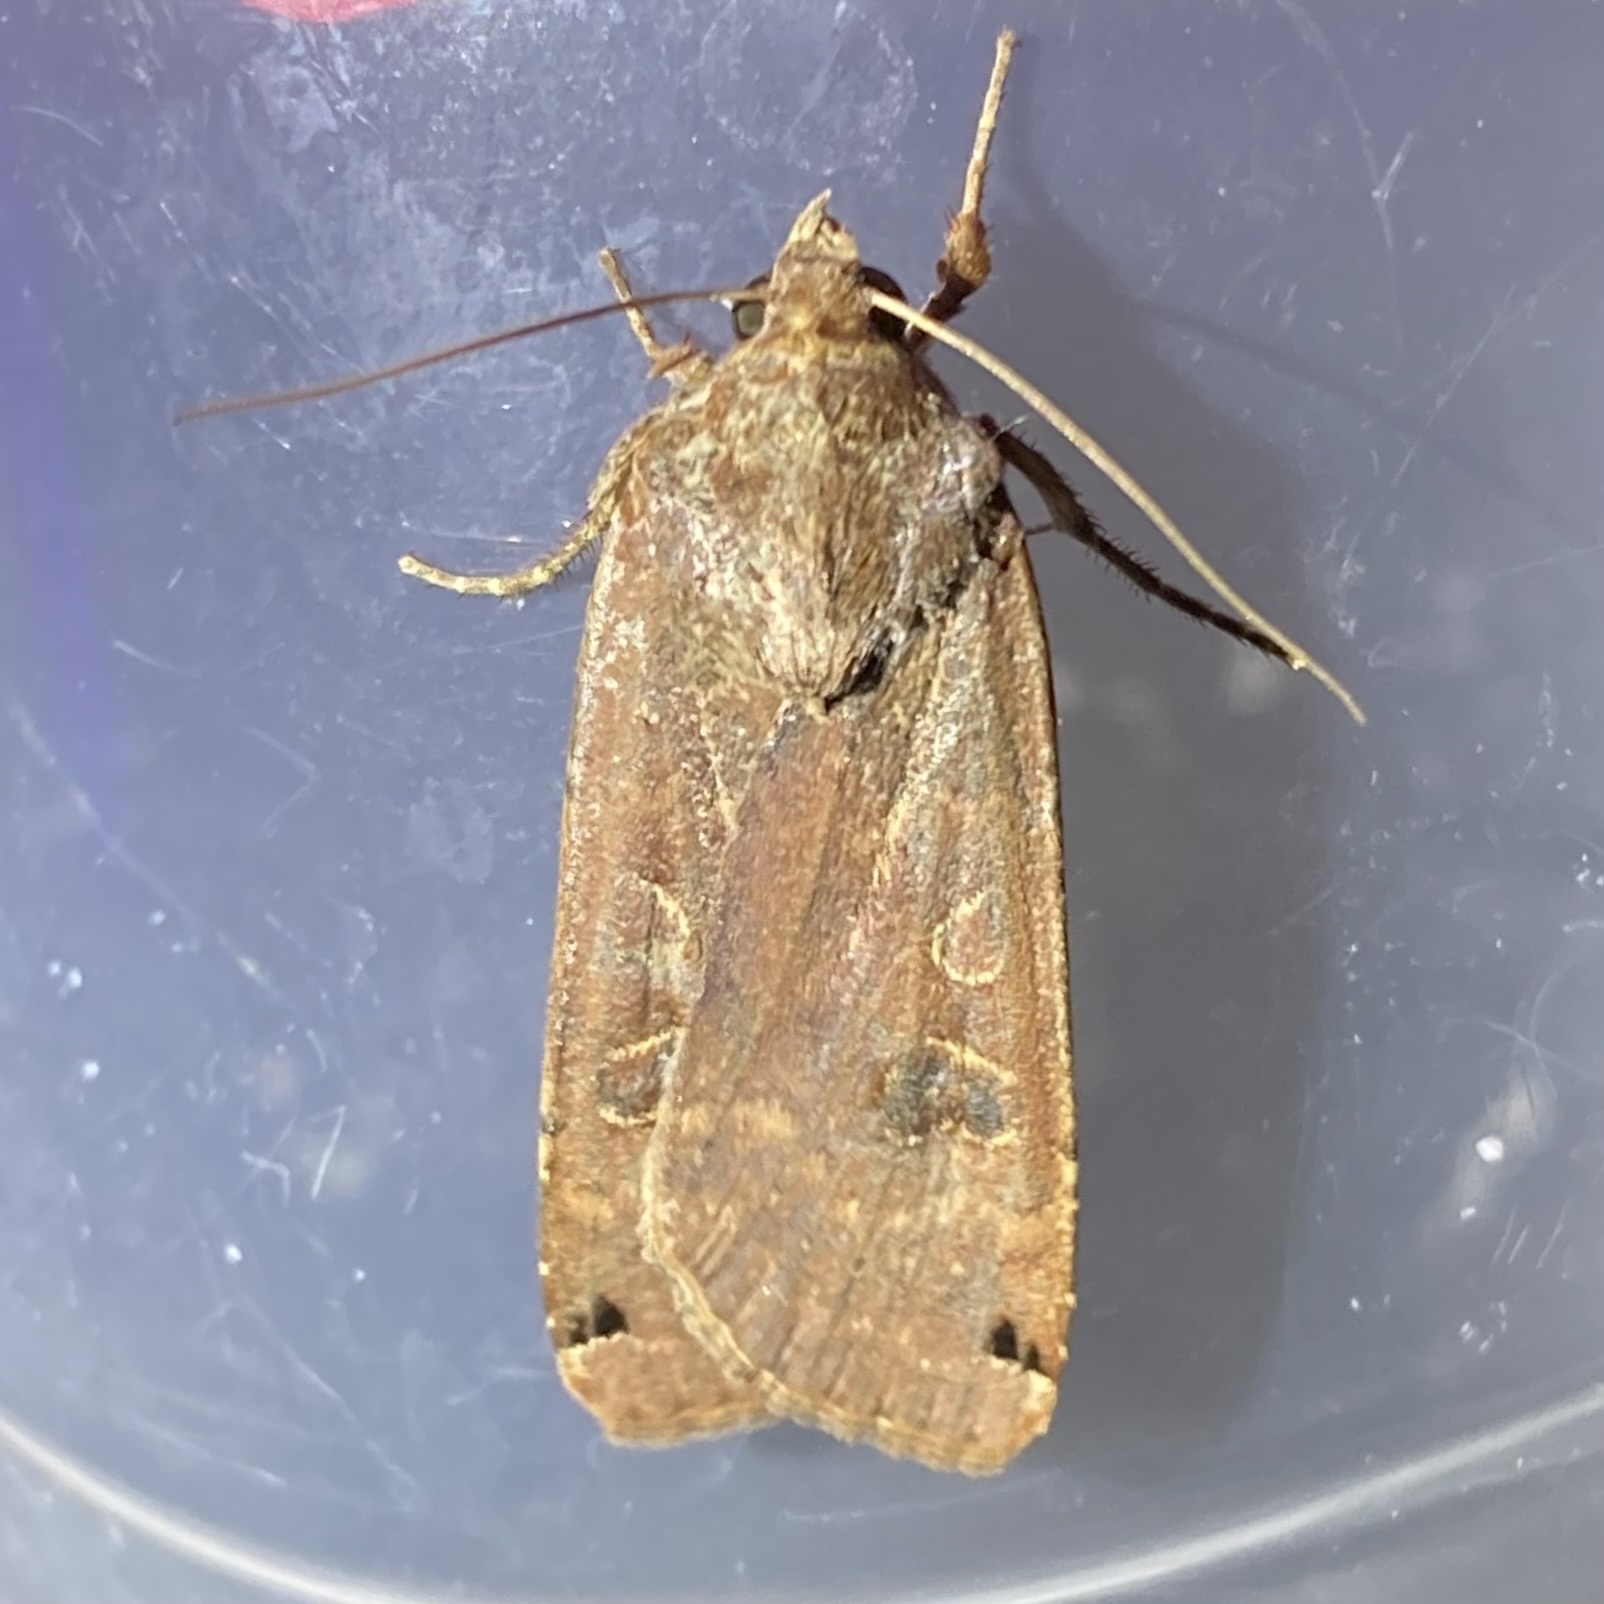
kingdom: Animalia
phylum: Arthropoda
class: Insecta
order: Lepidoptera
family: Noctuidae
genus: Noctua
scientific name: Noctua pronuba
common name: Large yellow underwing
